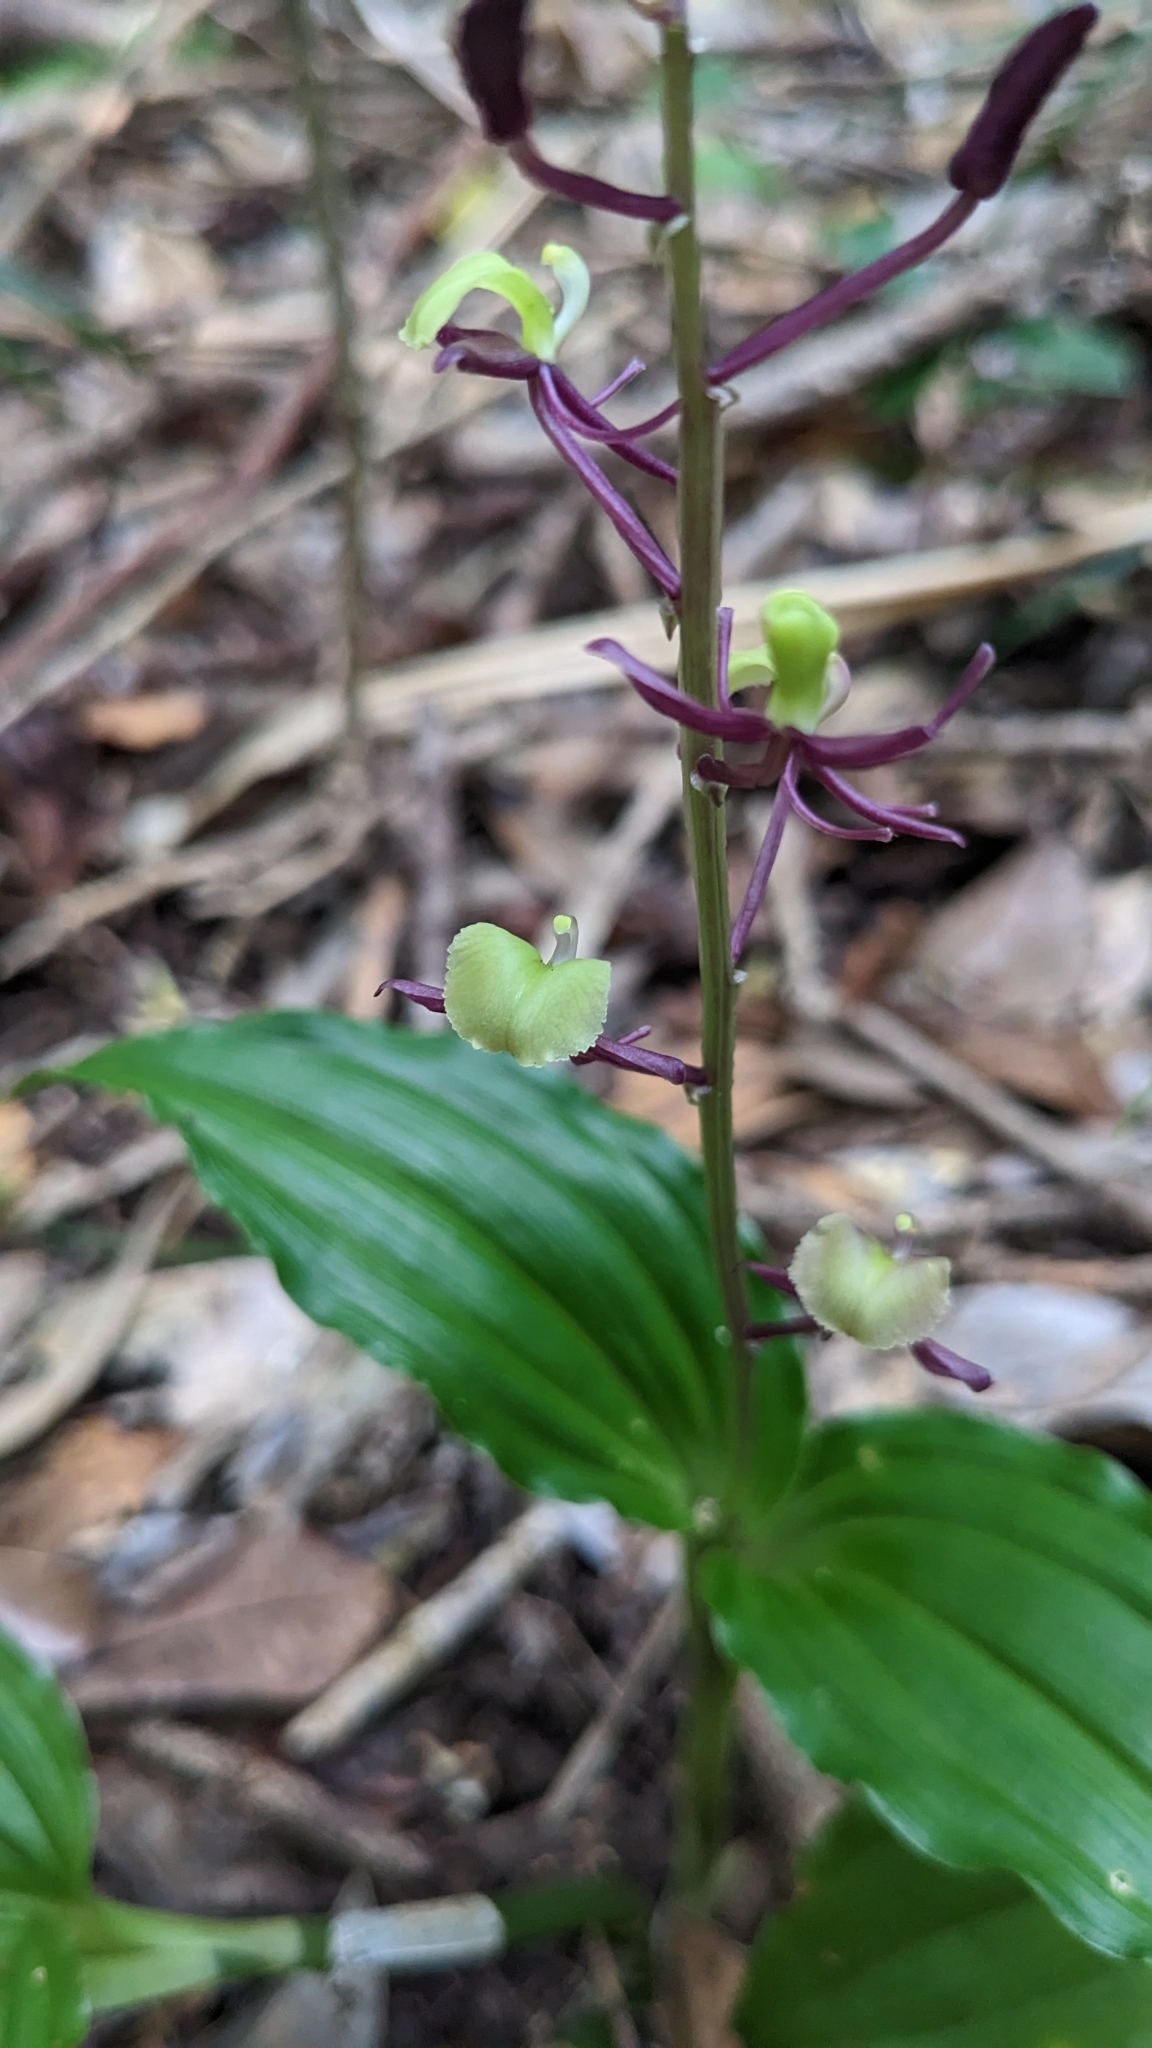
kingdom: Plantae
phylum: Tracheophyta
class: Liliopsida
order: Asparagales
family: Orchidaceae
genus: Liparis
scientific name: Liparis henryi
